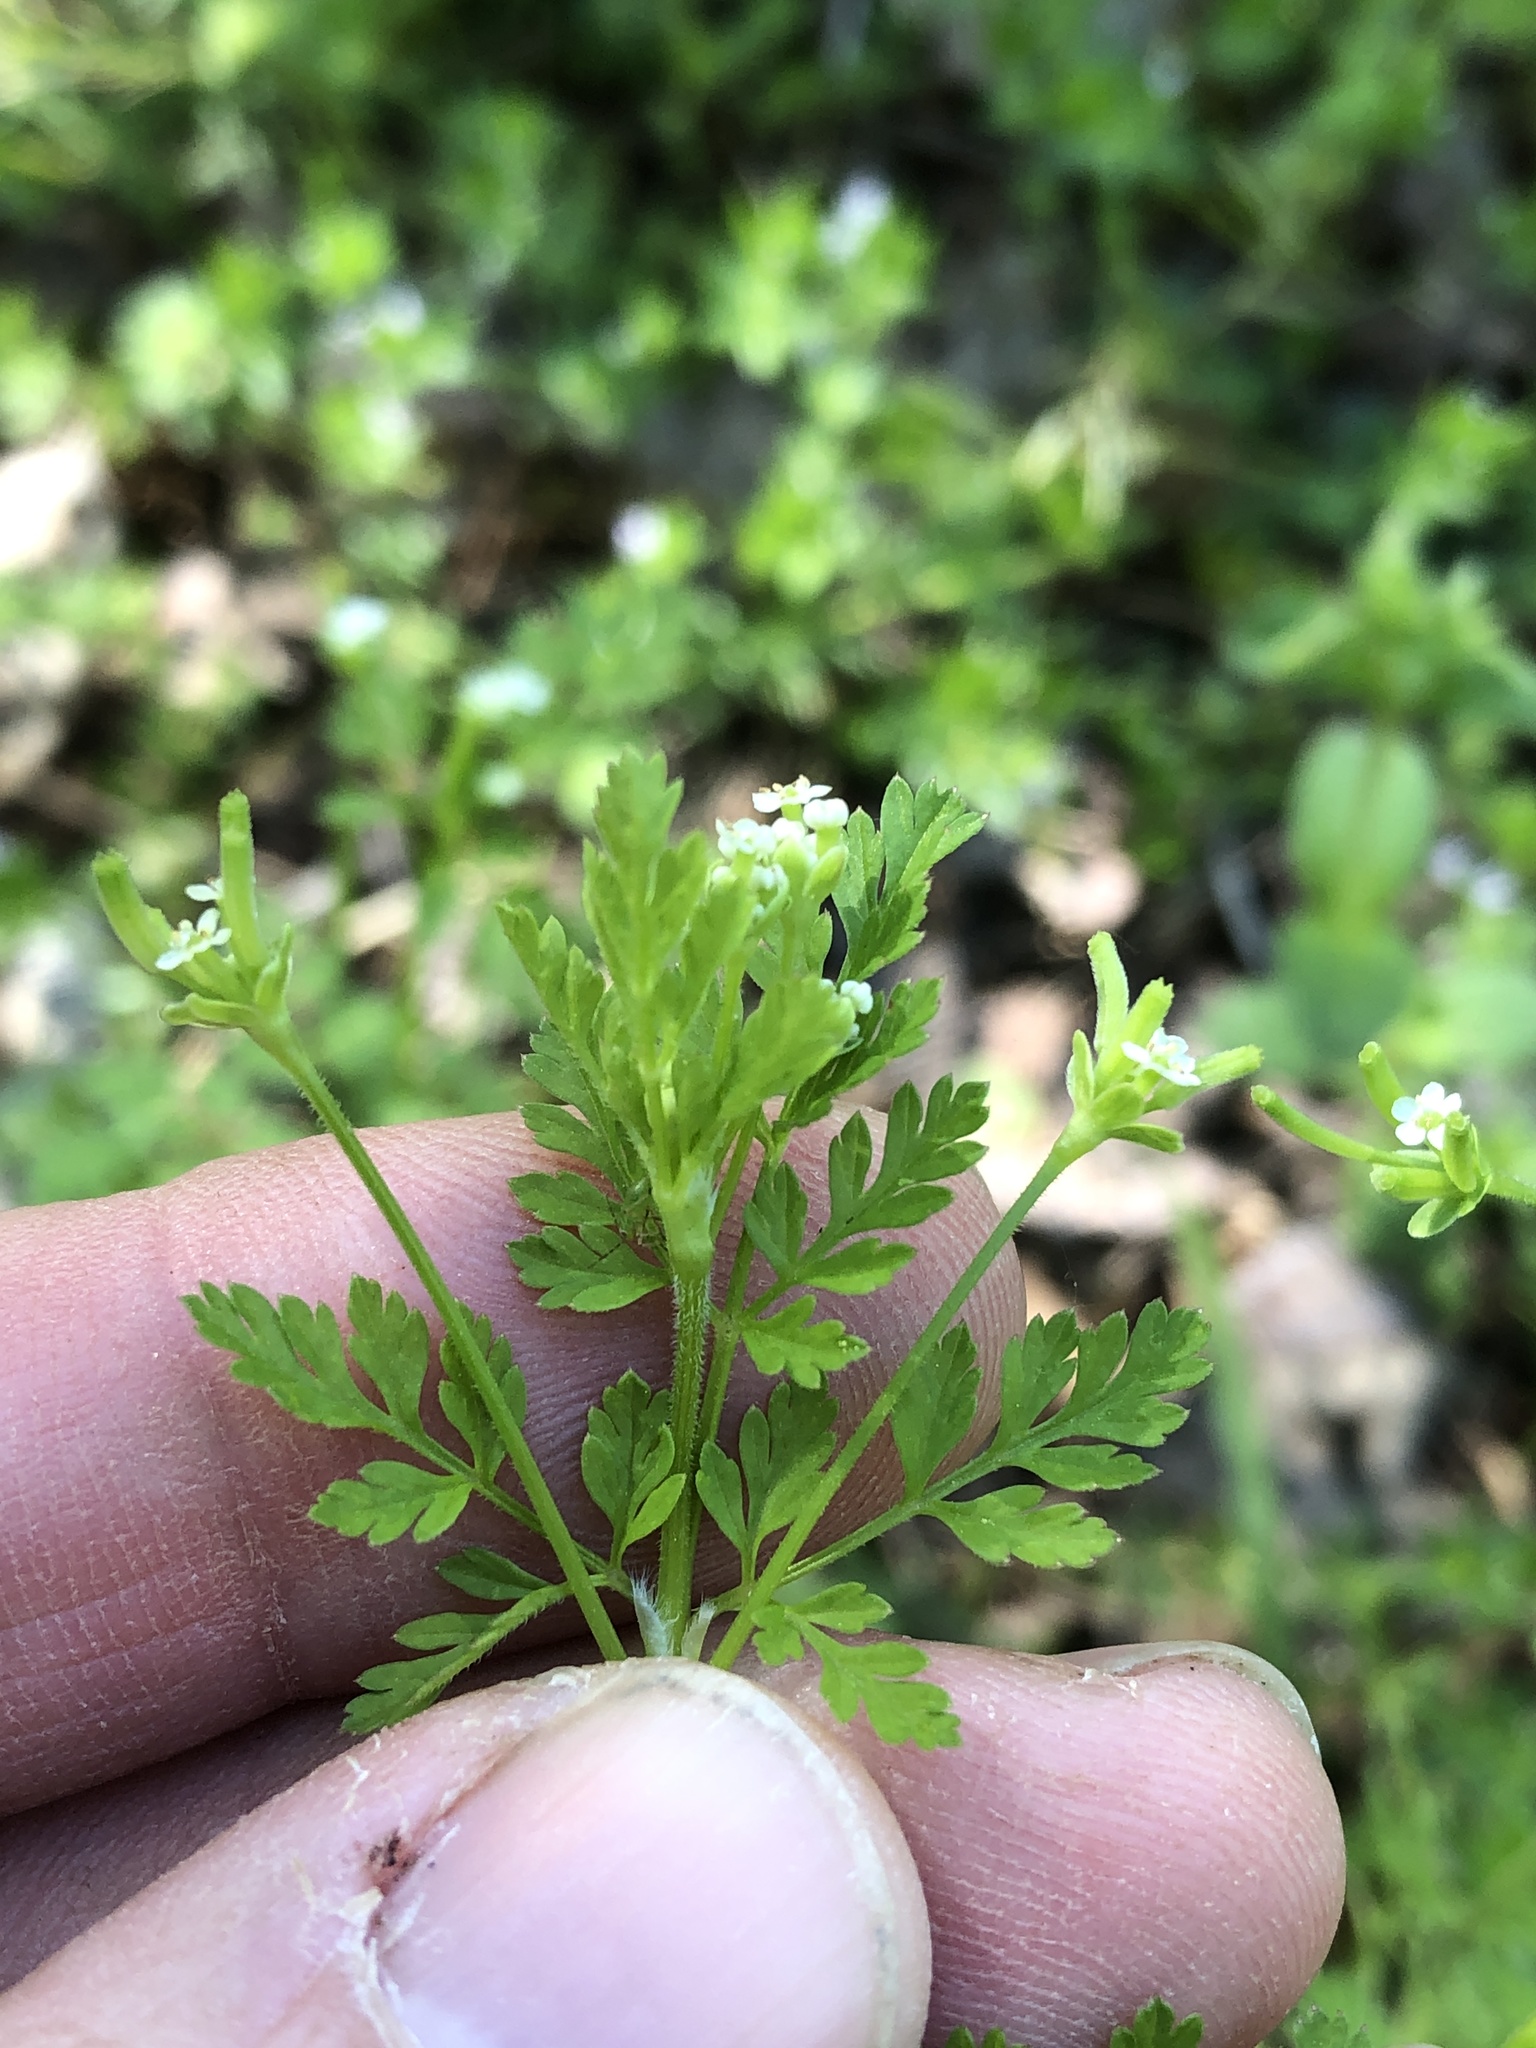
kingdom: Plantae
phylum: Tracheophyta
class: Magnoliopsida
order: Apiales
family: Apiaceae
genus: Chaerophyllum
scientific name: Chaerophyllum tainturieri
